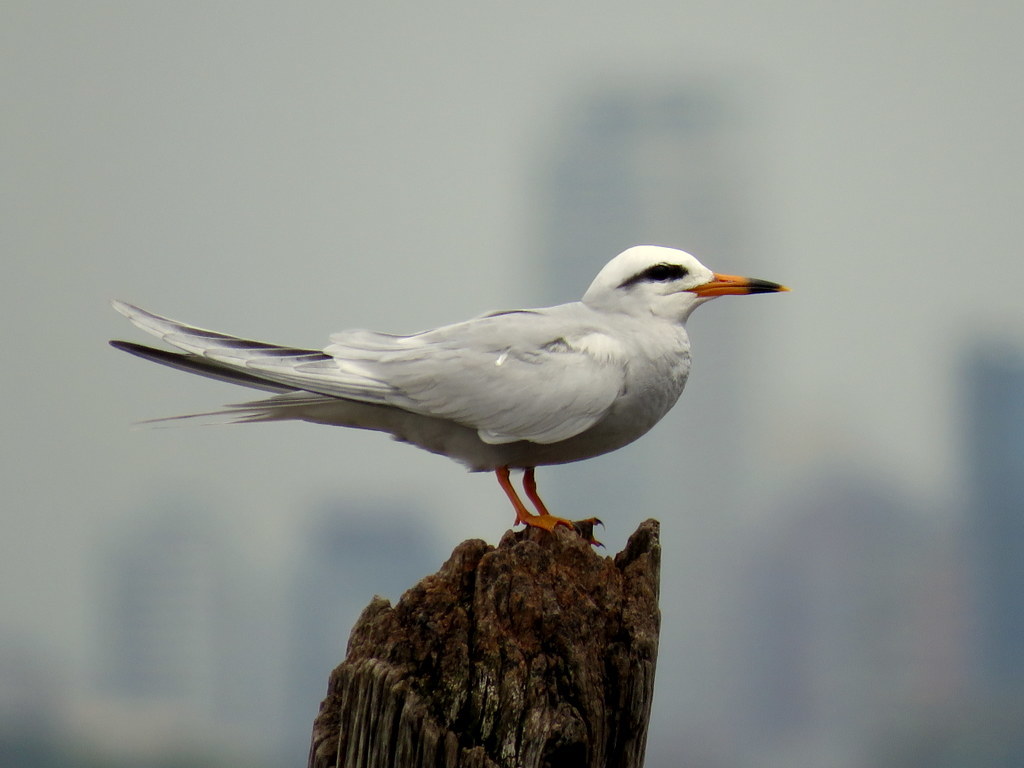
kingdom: Animalia
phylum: Chordata
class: Aves
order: Charadriiformes
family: Laridae
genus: Sterna
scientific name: Sterna trudeaui
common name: Snowy-crowned tern
